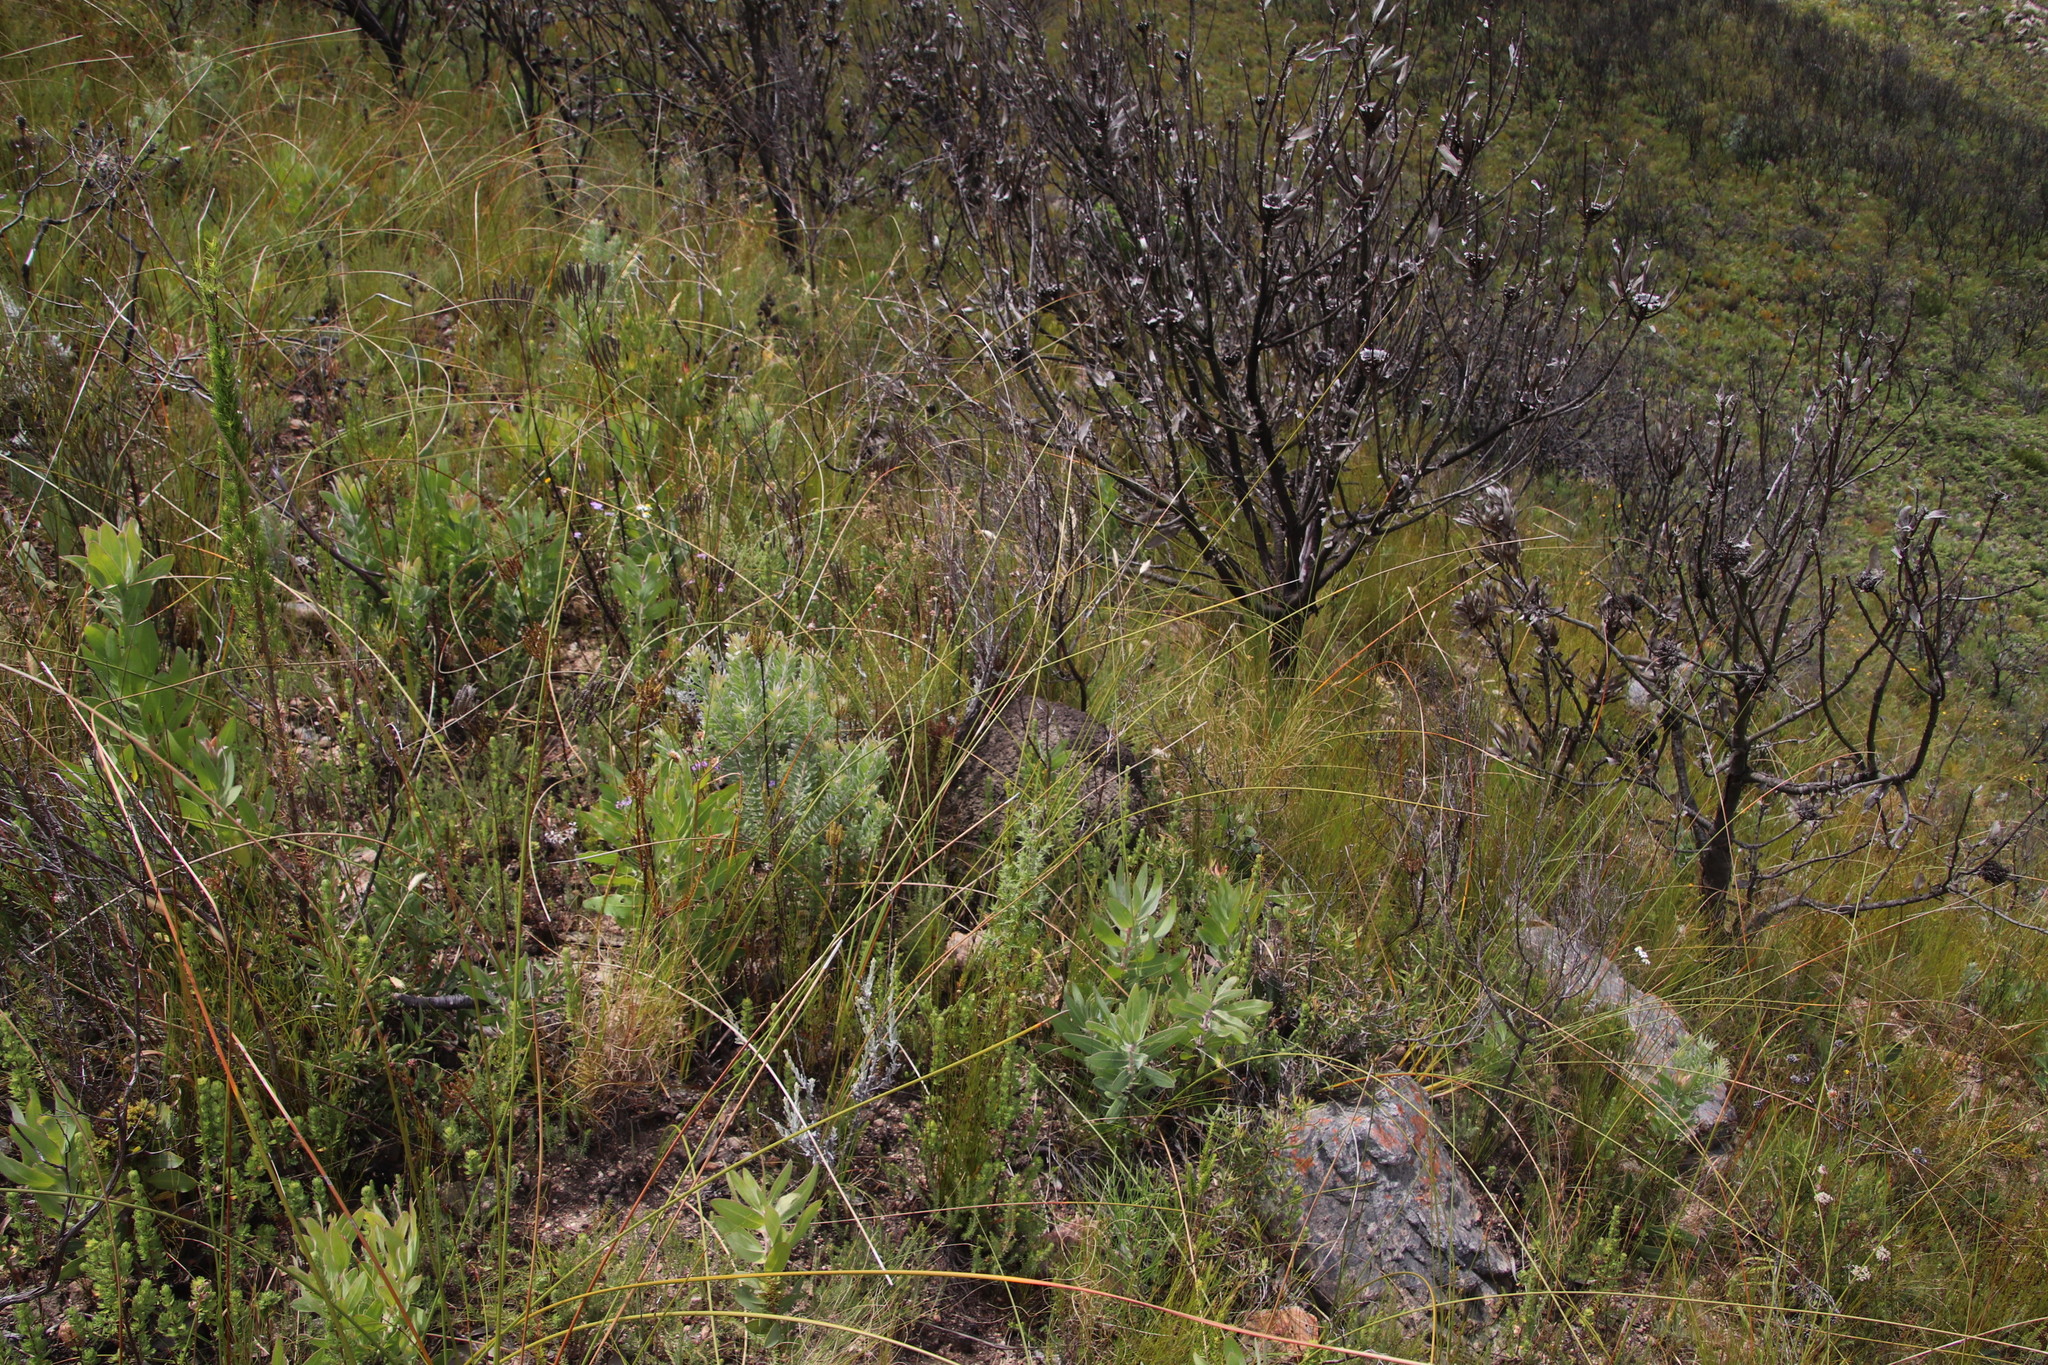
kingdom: Plantae
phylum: Tracheophyta
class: Liliopsida
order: Asparagales
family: Iridaceae
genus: Bobartia
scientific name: Bobartia indica
